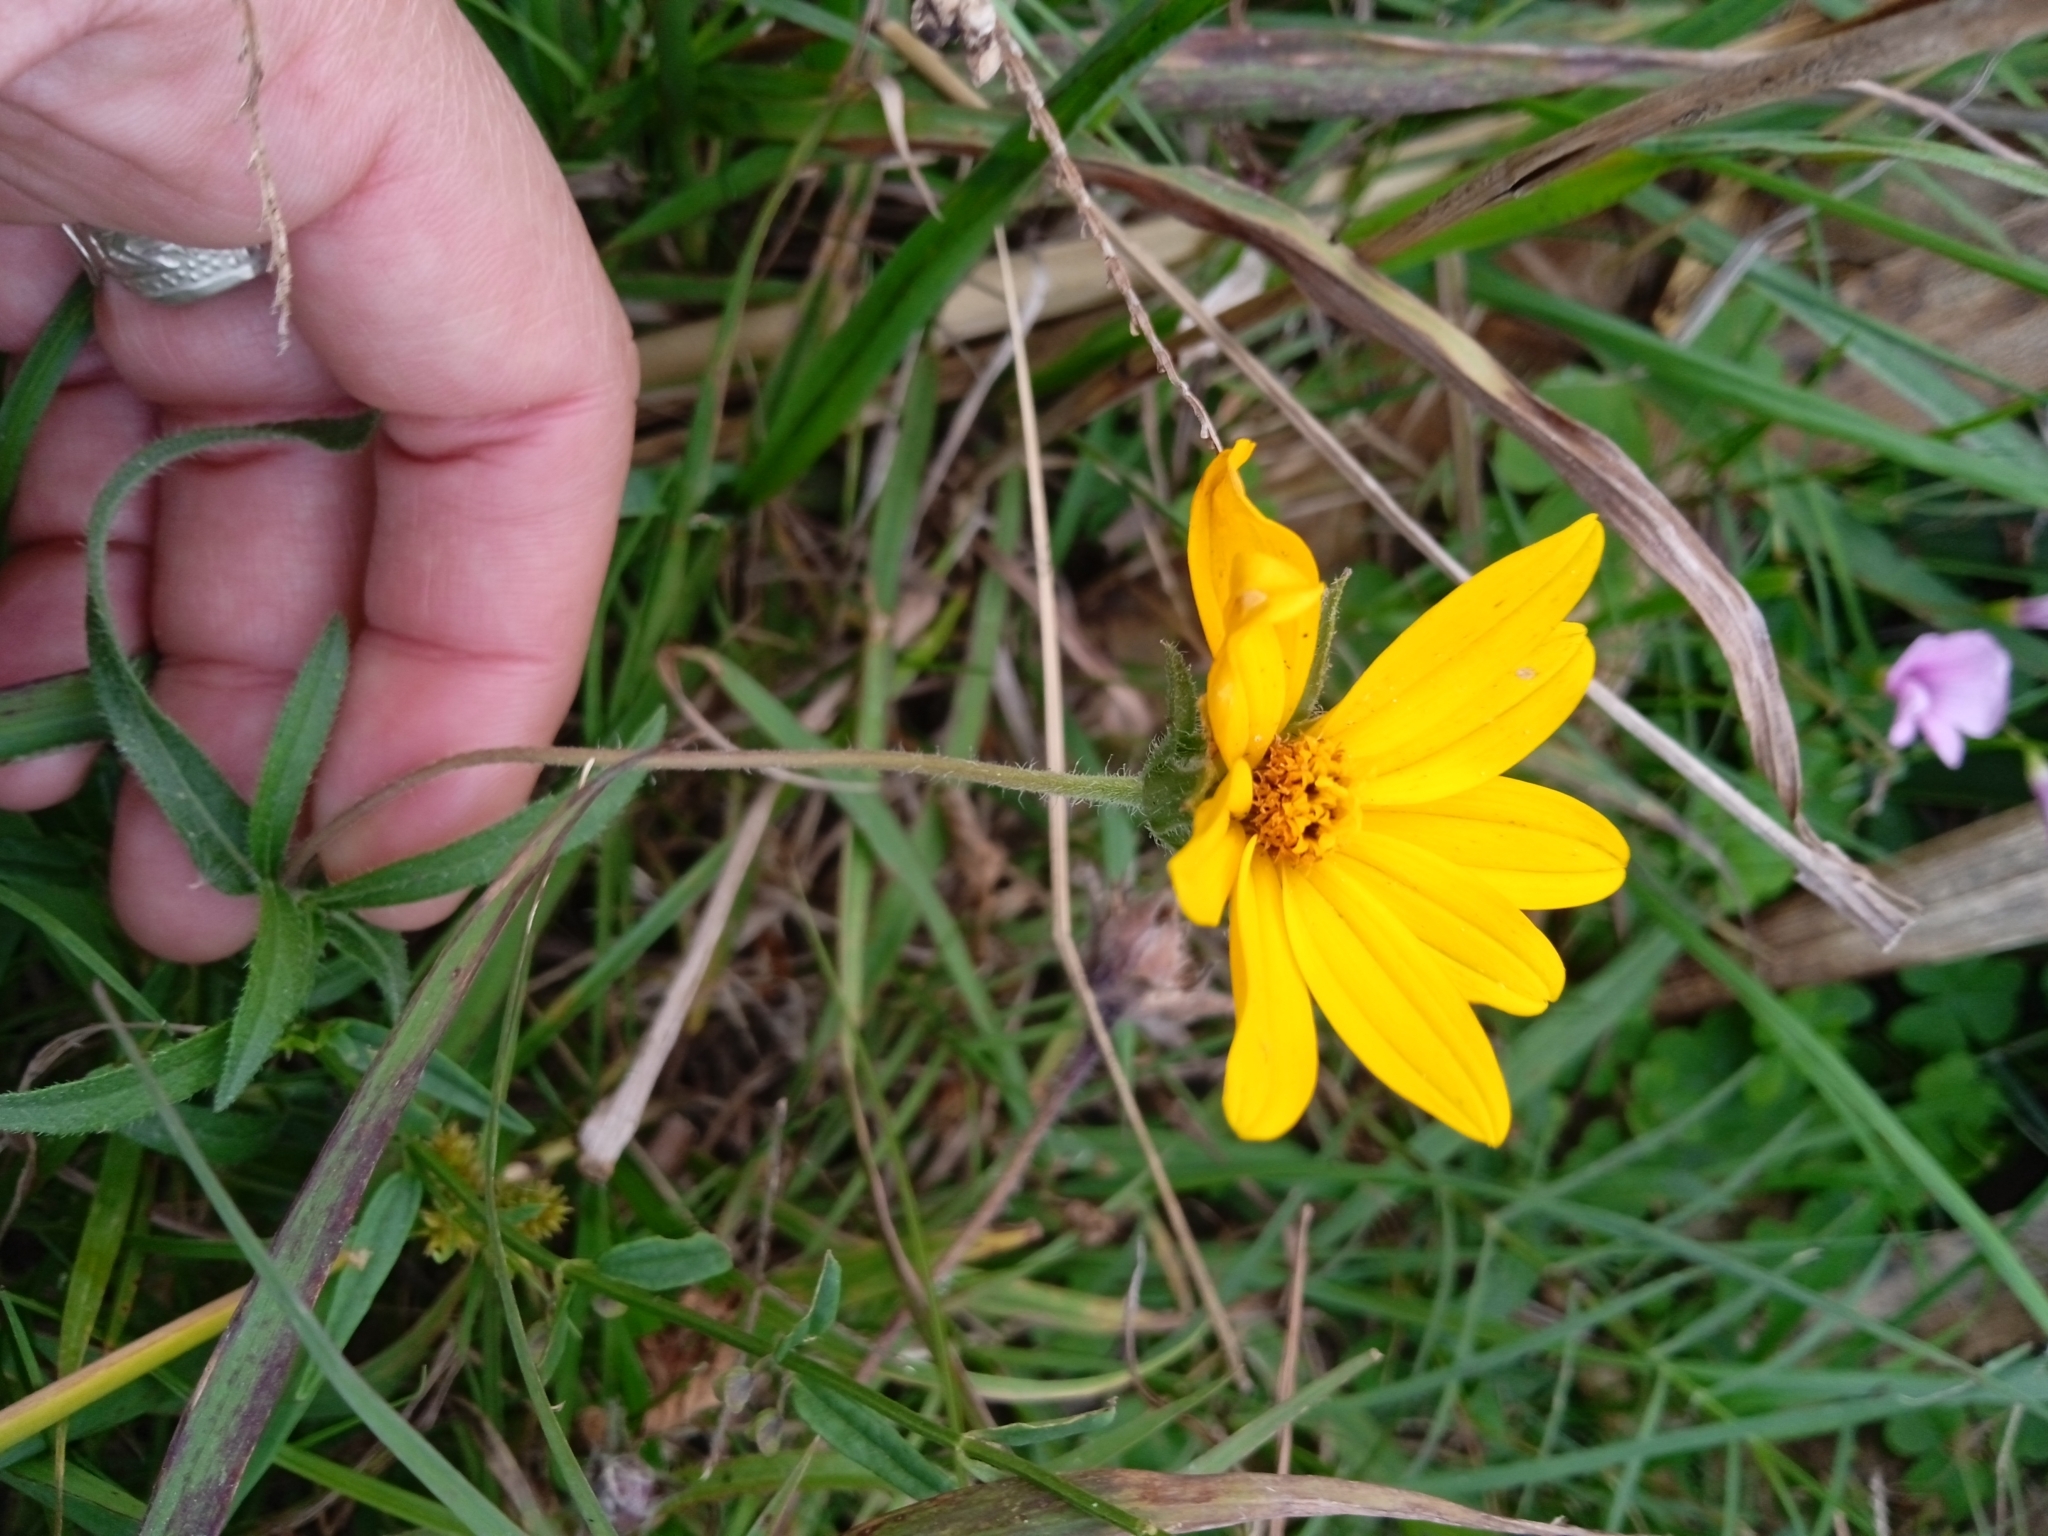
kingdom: Plantae
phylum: Tracheophyta
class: Magnoliopsida
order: Asterales
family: Asteraceae
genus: Wedelia
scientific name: Wedelia montevidensis
